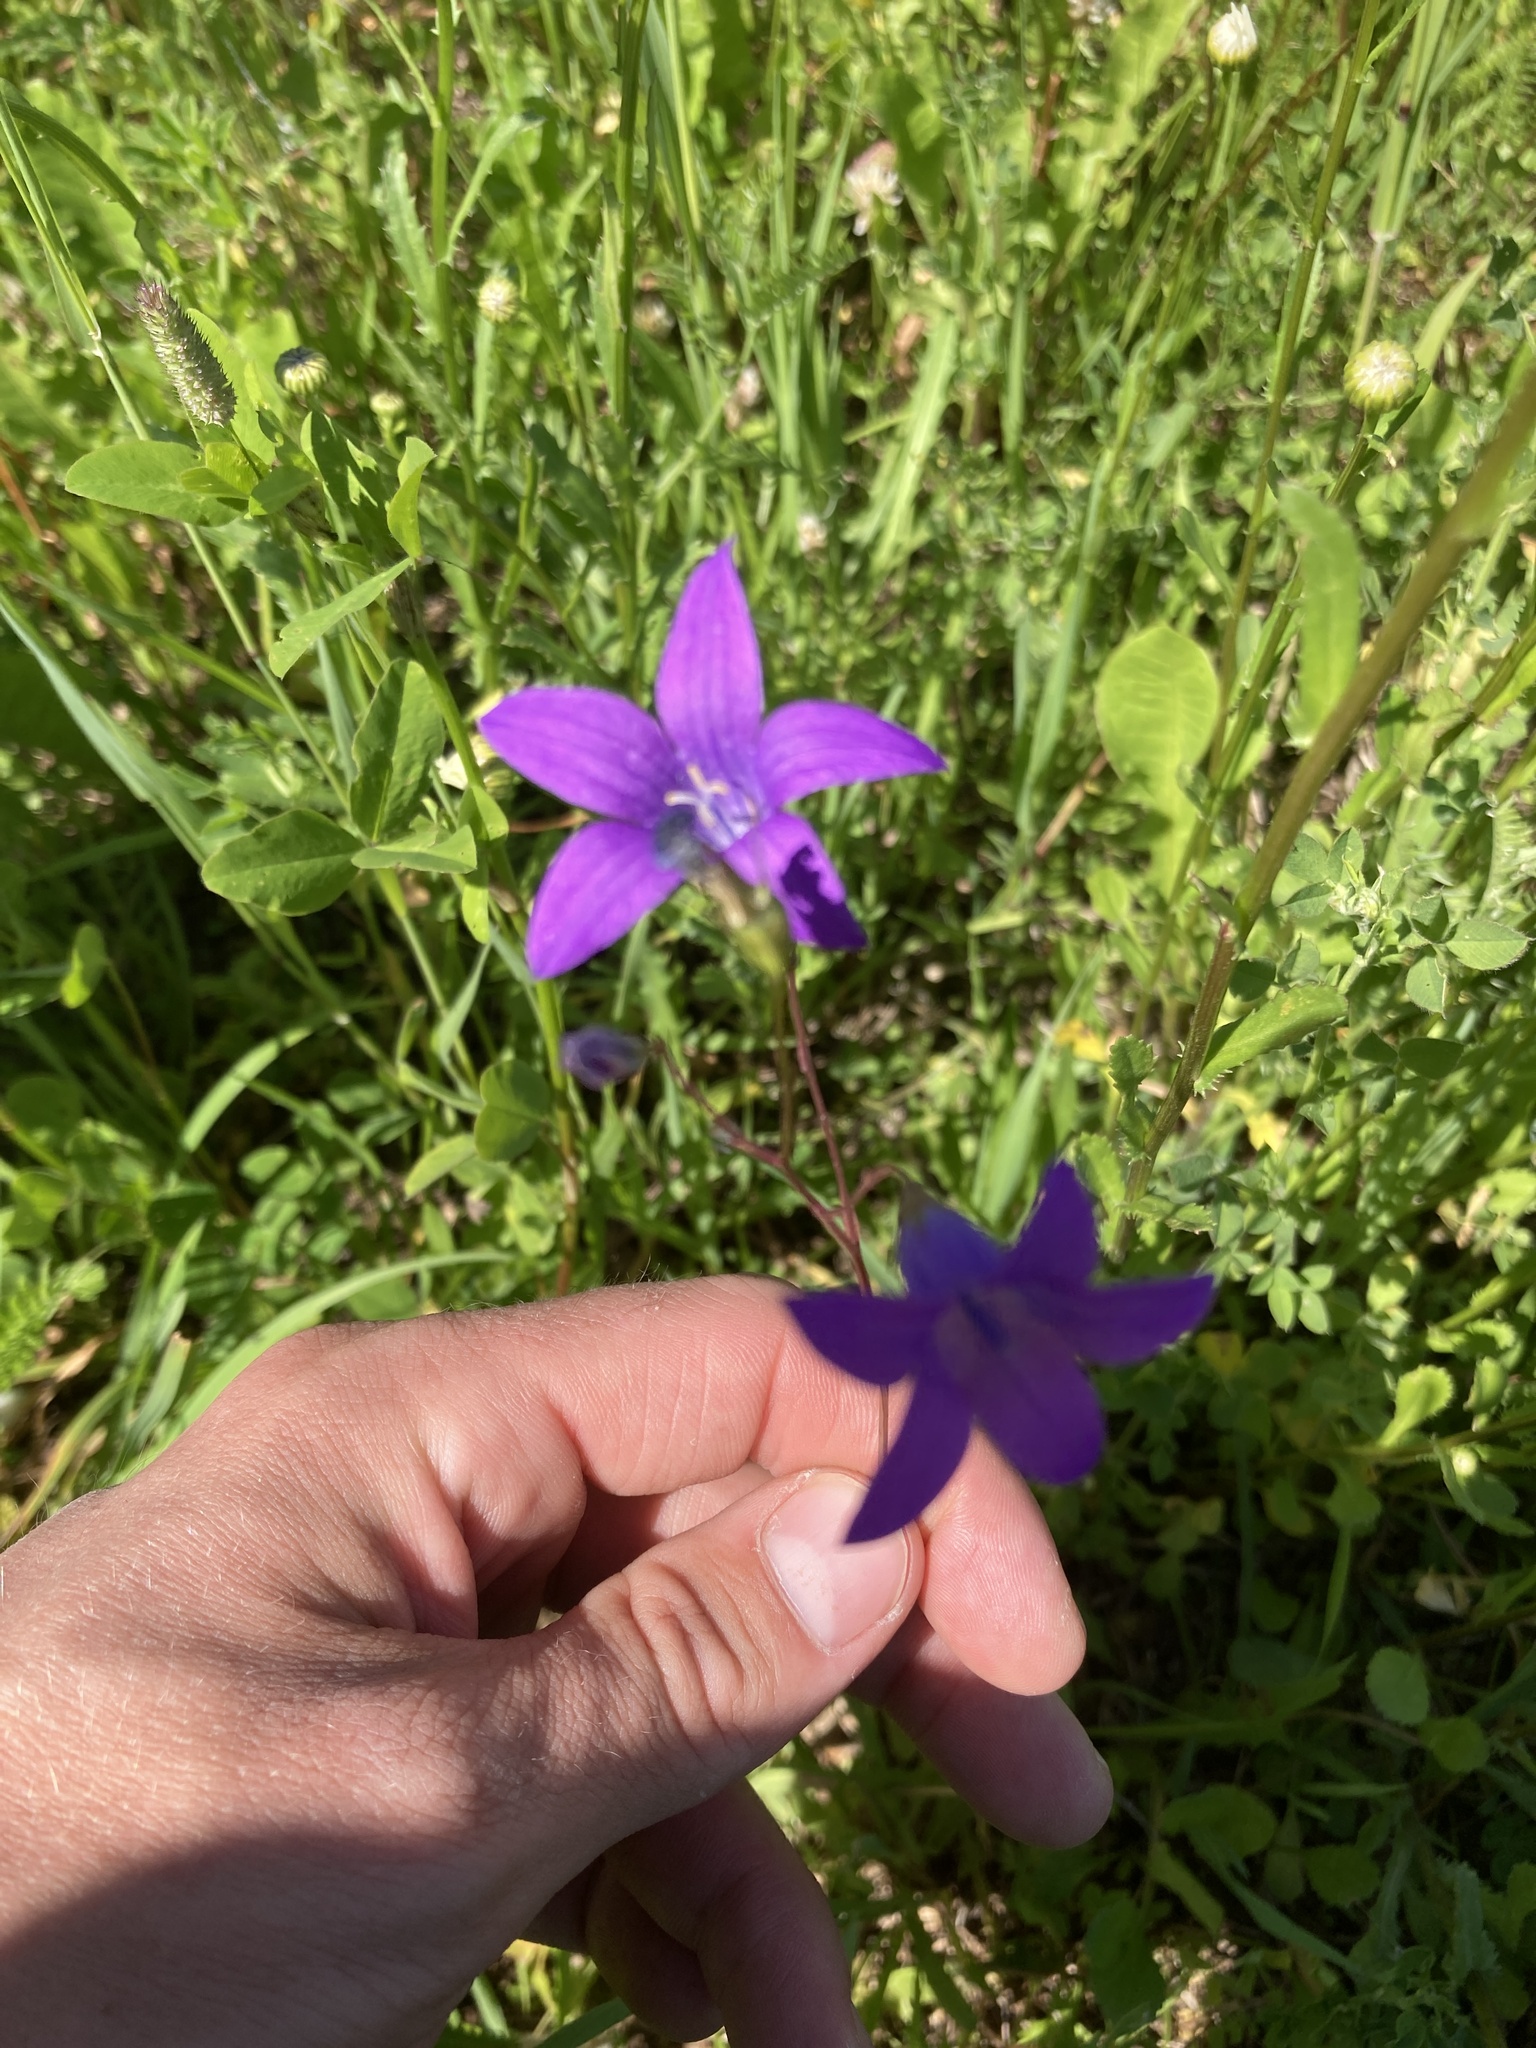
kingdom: Plantae
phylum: Tracheophyta
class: Magnoliopsida
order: Asterales
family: Campanulaceae
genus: Campanula
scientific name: Campanula patula
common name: Spreading bellflower
